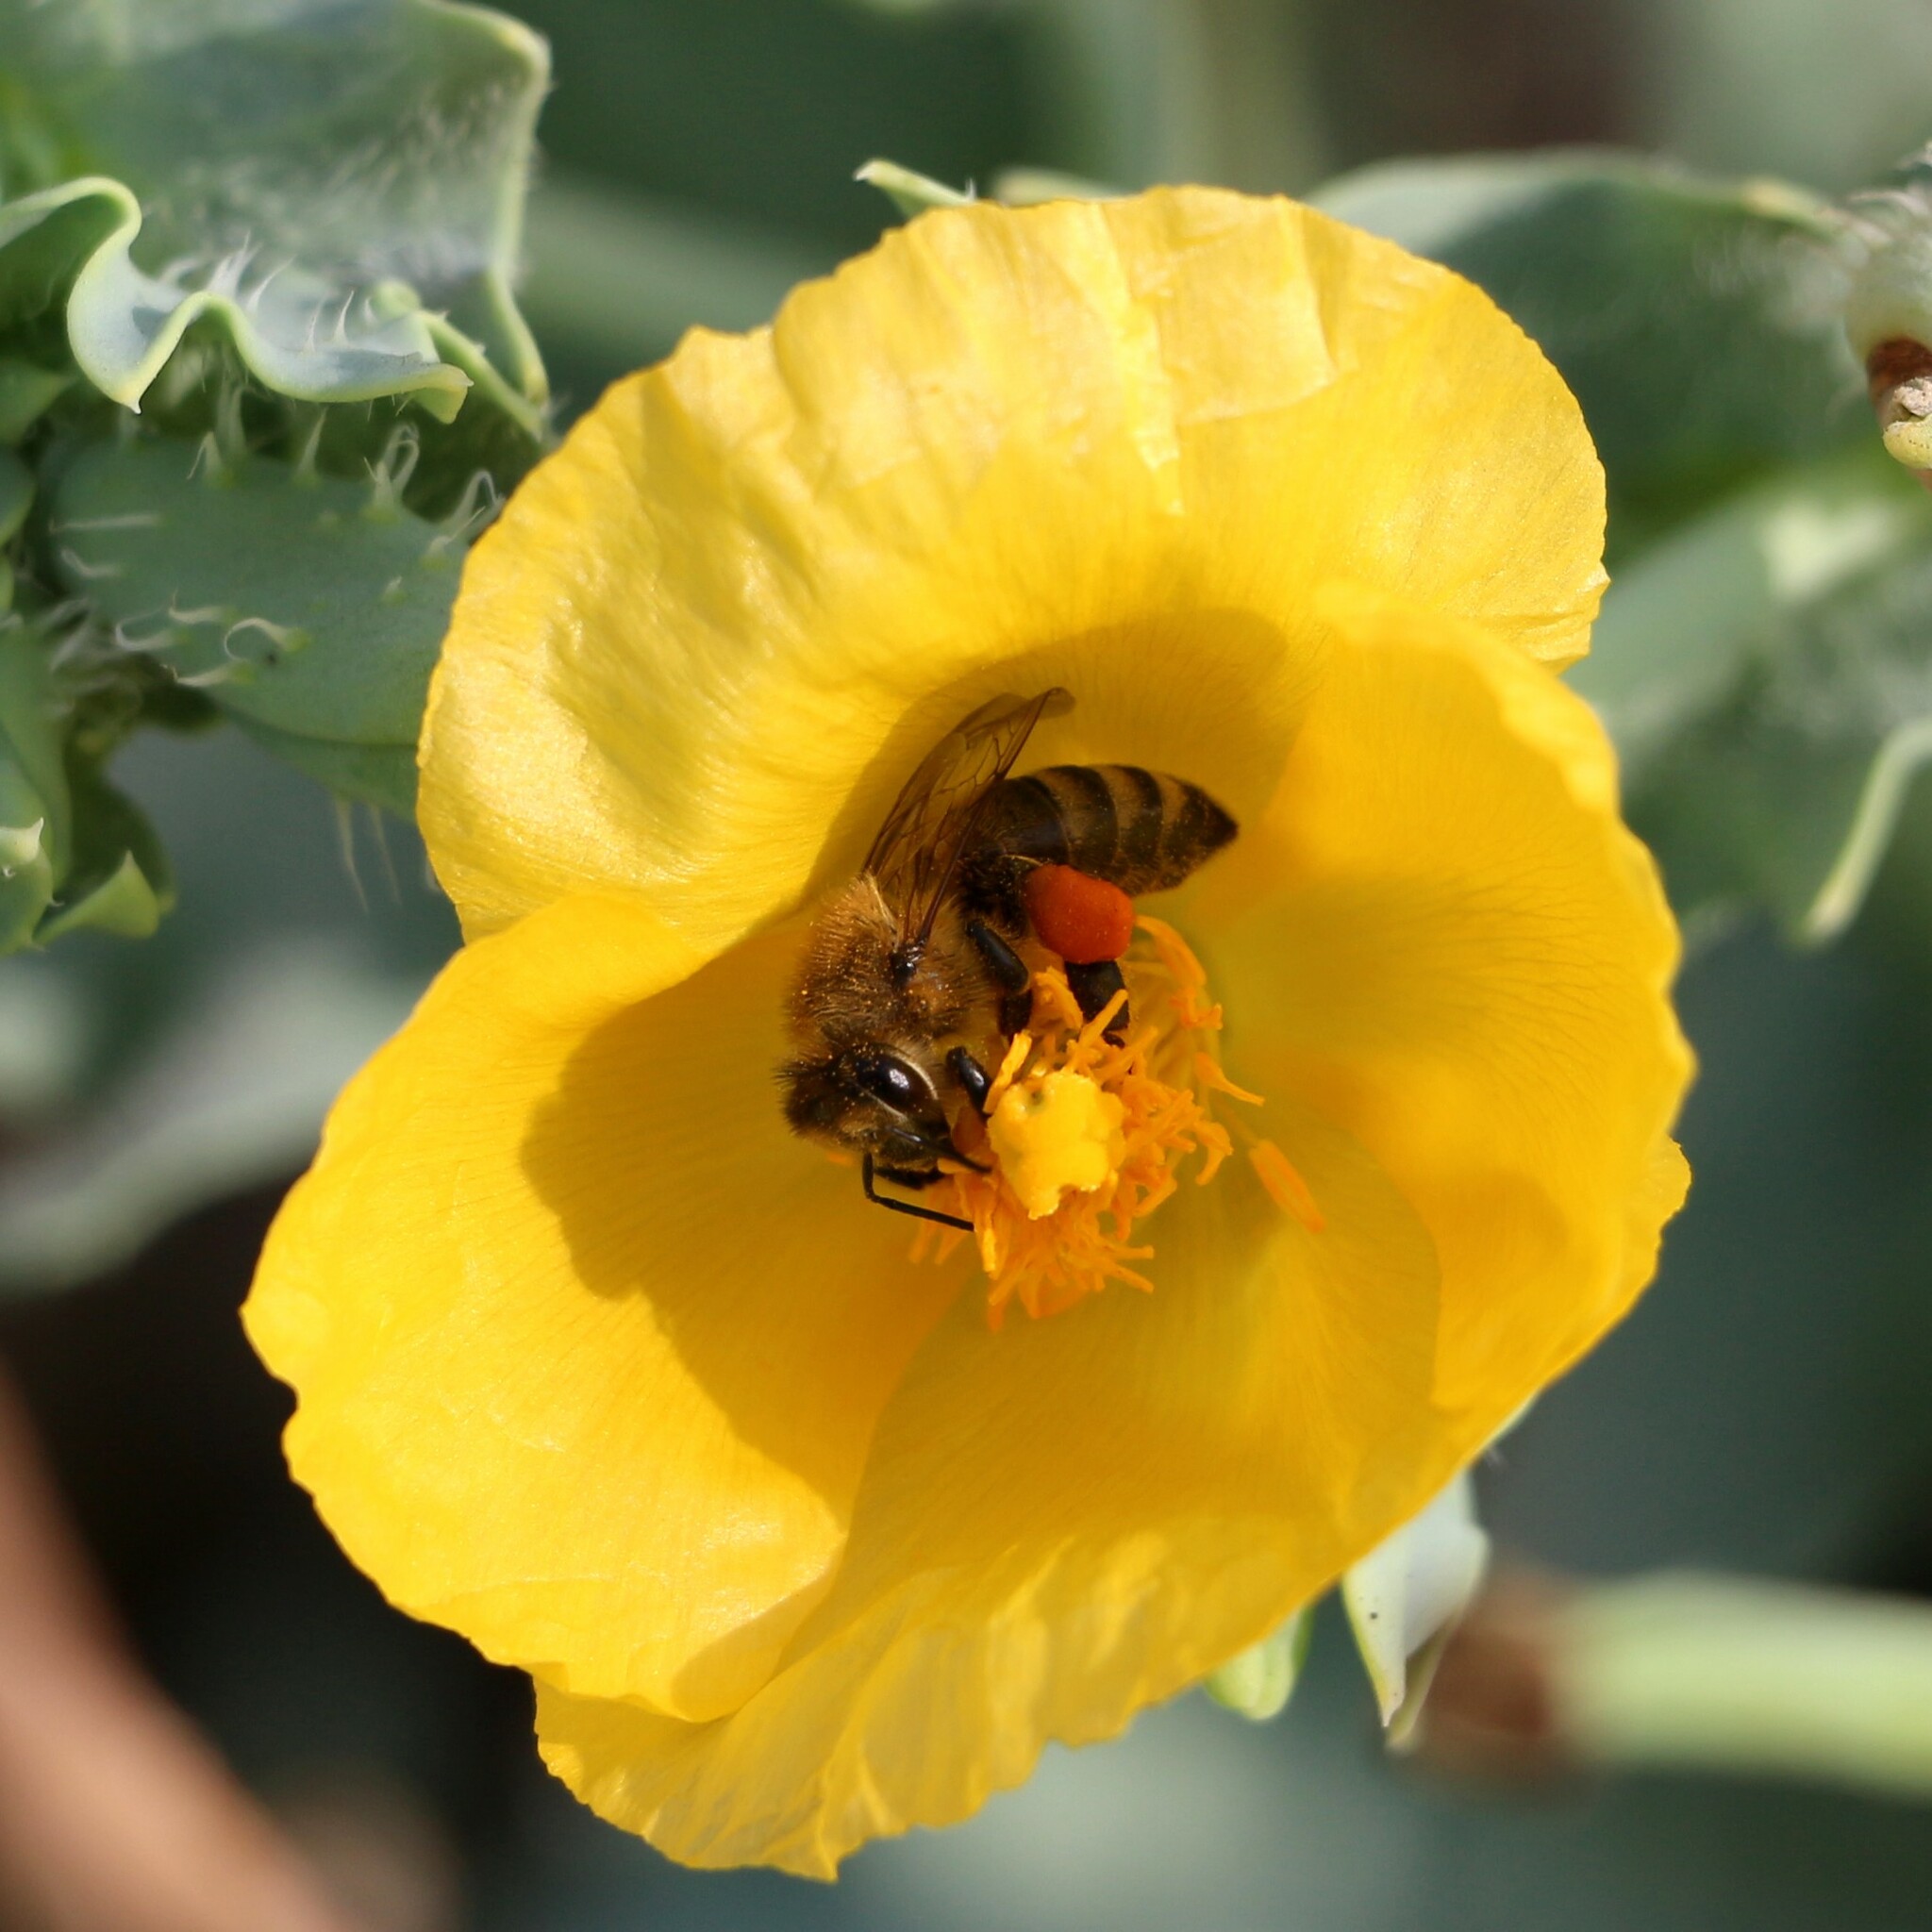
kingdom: Plantae
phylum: Tracheophyta
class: Magnoliopsida
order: Ranunculales
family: Papaveraceae
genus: Glaucium
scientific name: Glaucium flavum
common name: Yellow horned-poppy
